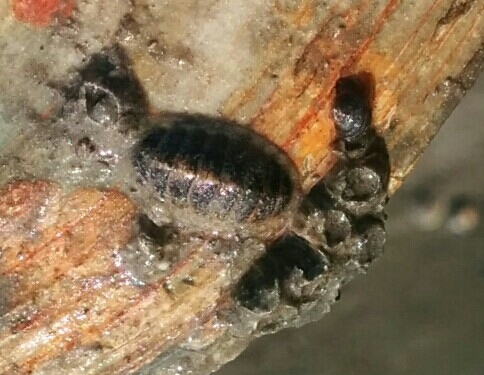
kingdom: Animalia
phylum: Mollusca
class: Polyplacophora
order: Chitonida
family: Tonicellidae
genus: Lepidochitona
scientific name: Lepidochitona cinerea
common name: Cinereous chiton
